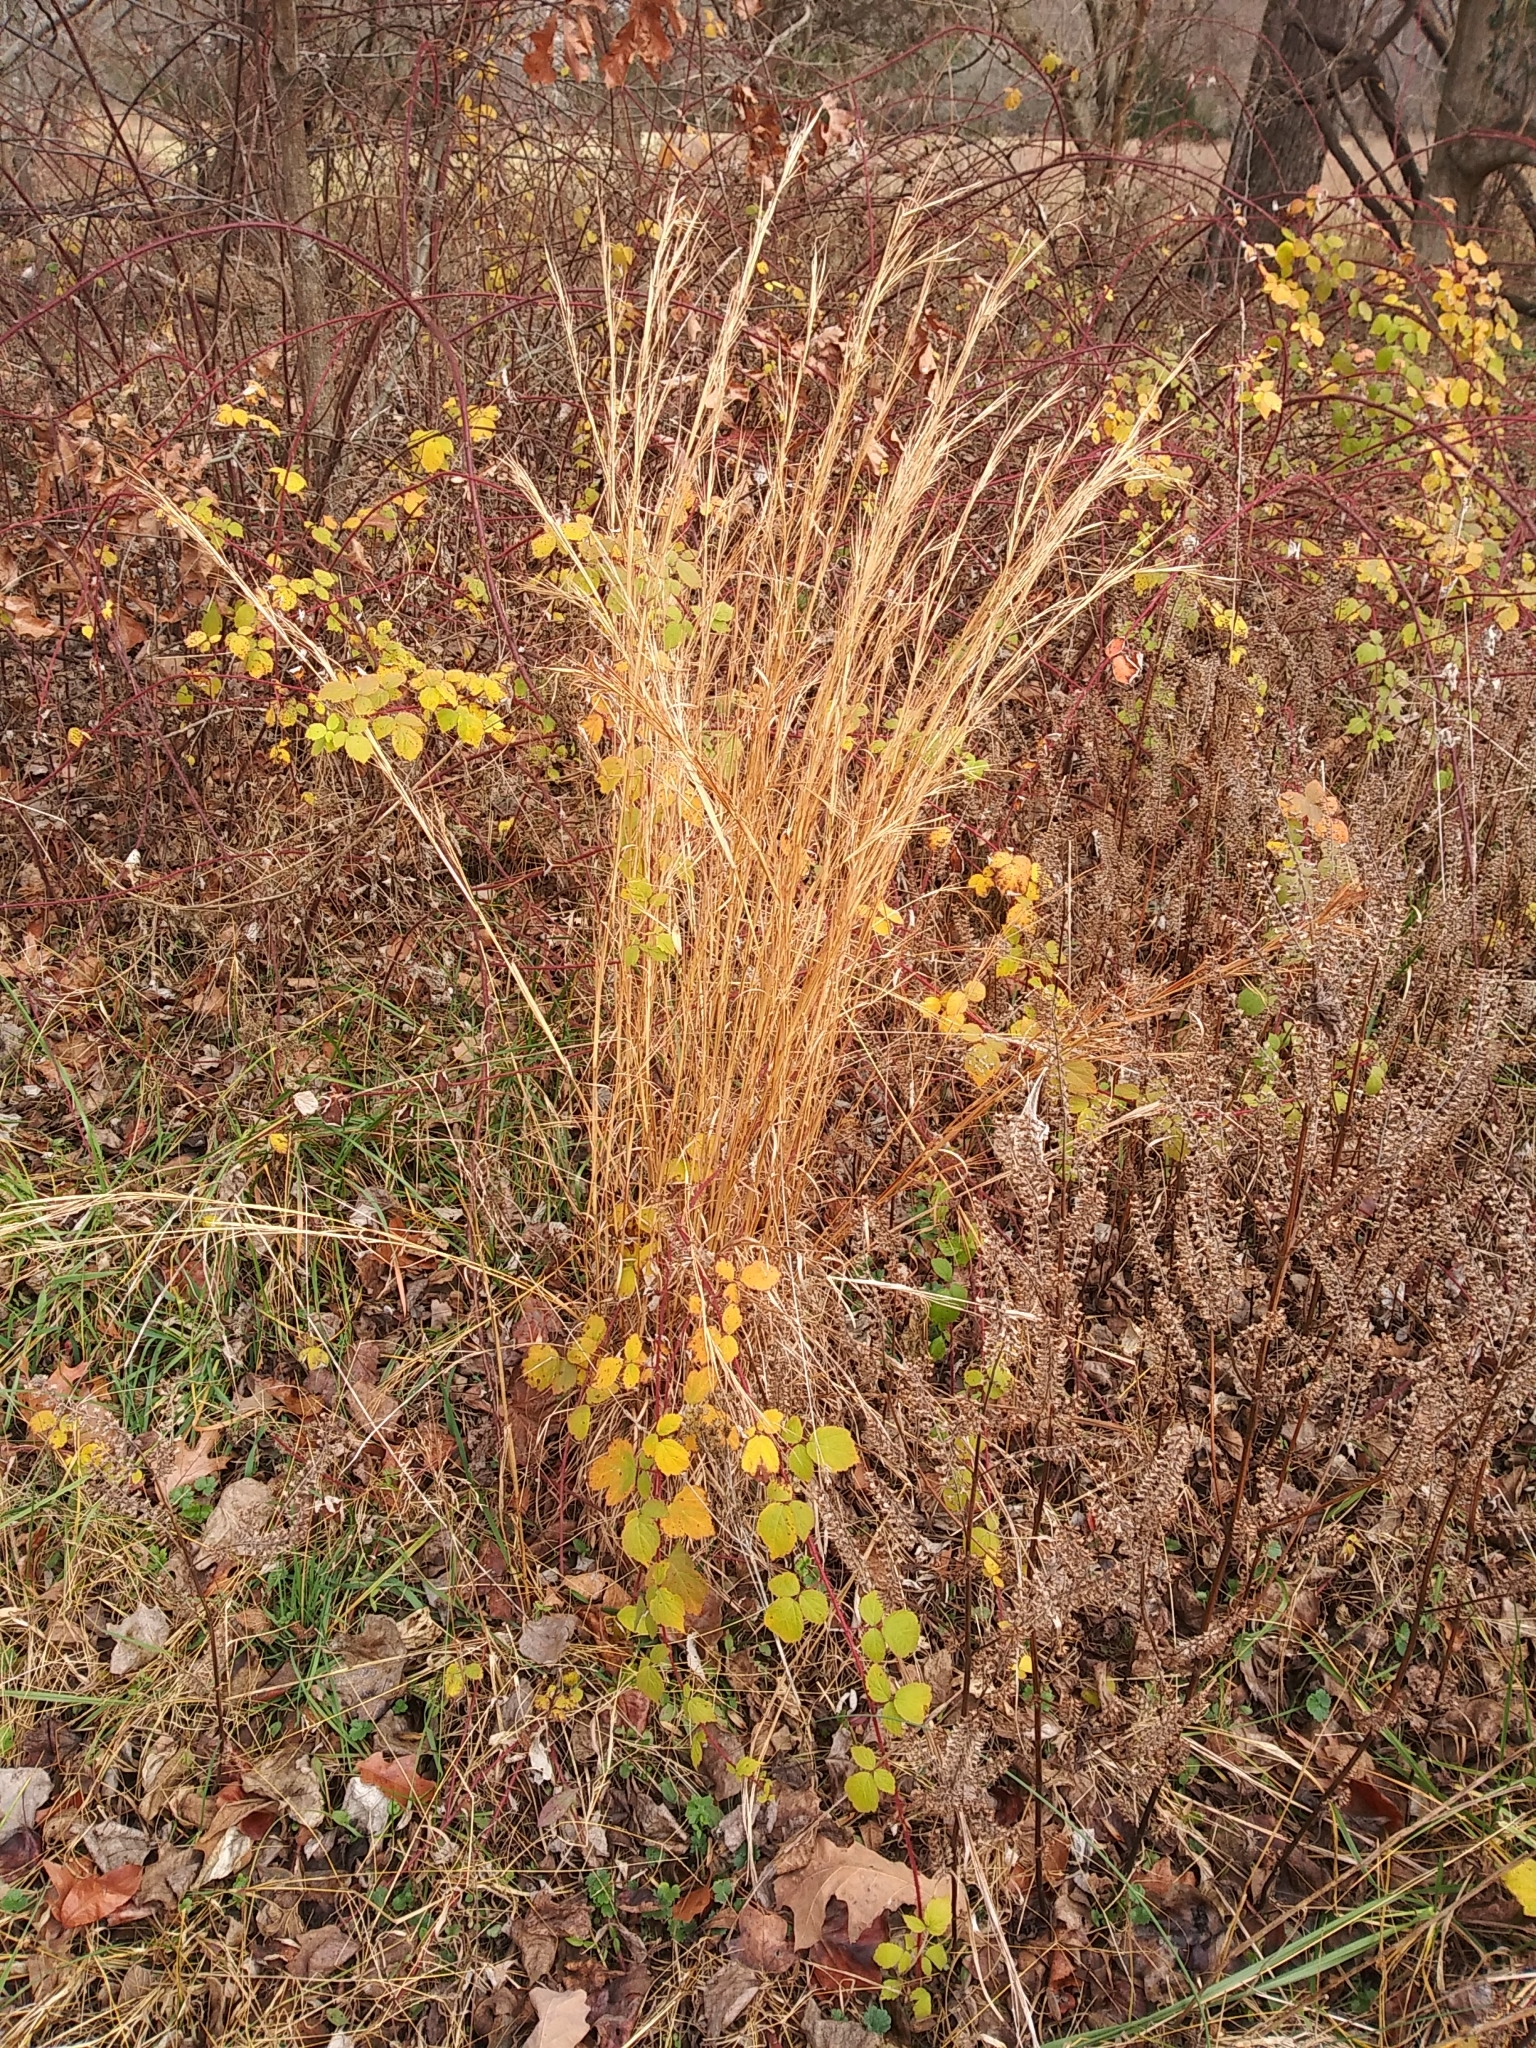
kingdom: Plantae
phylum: Tracheophyta
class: Liliopsida
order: Poales
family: Poaceae
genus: Andropogon
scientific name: Andropogon virginicus
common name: Broomsedge bluestem
